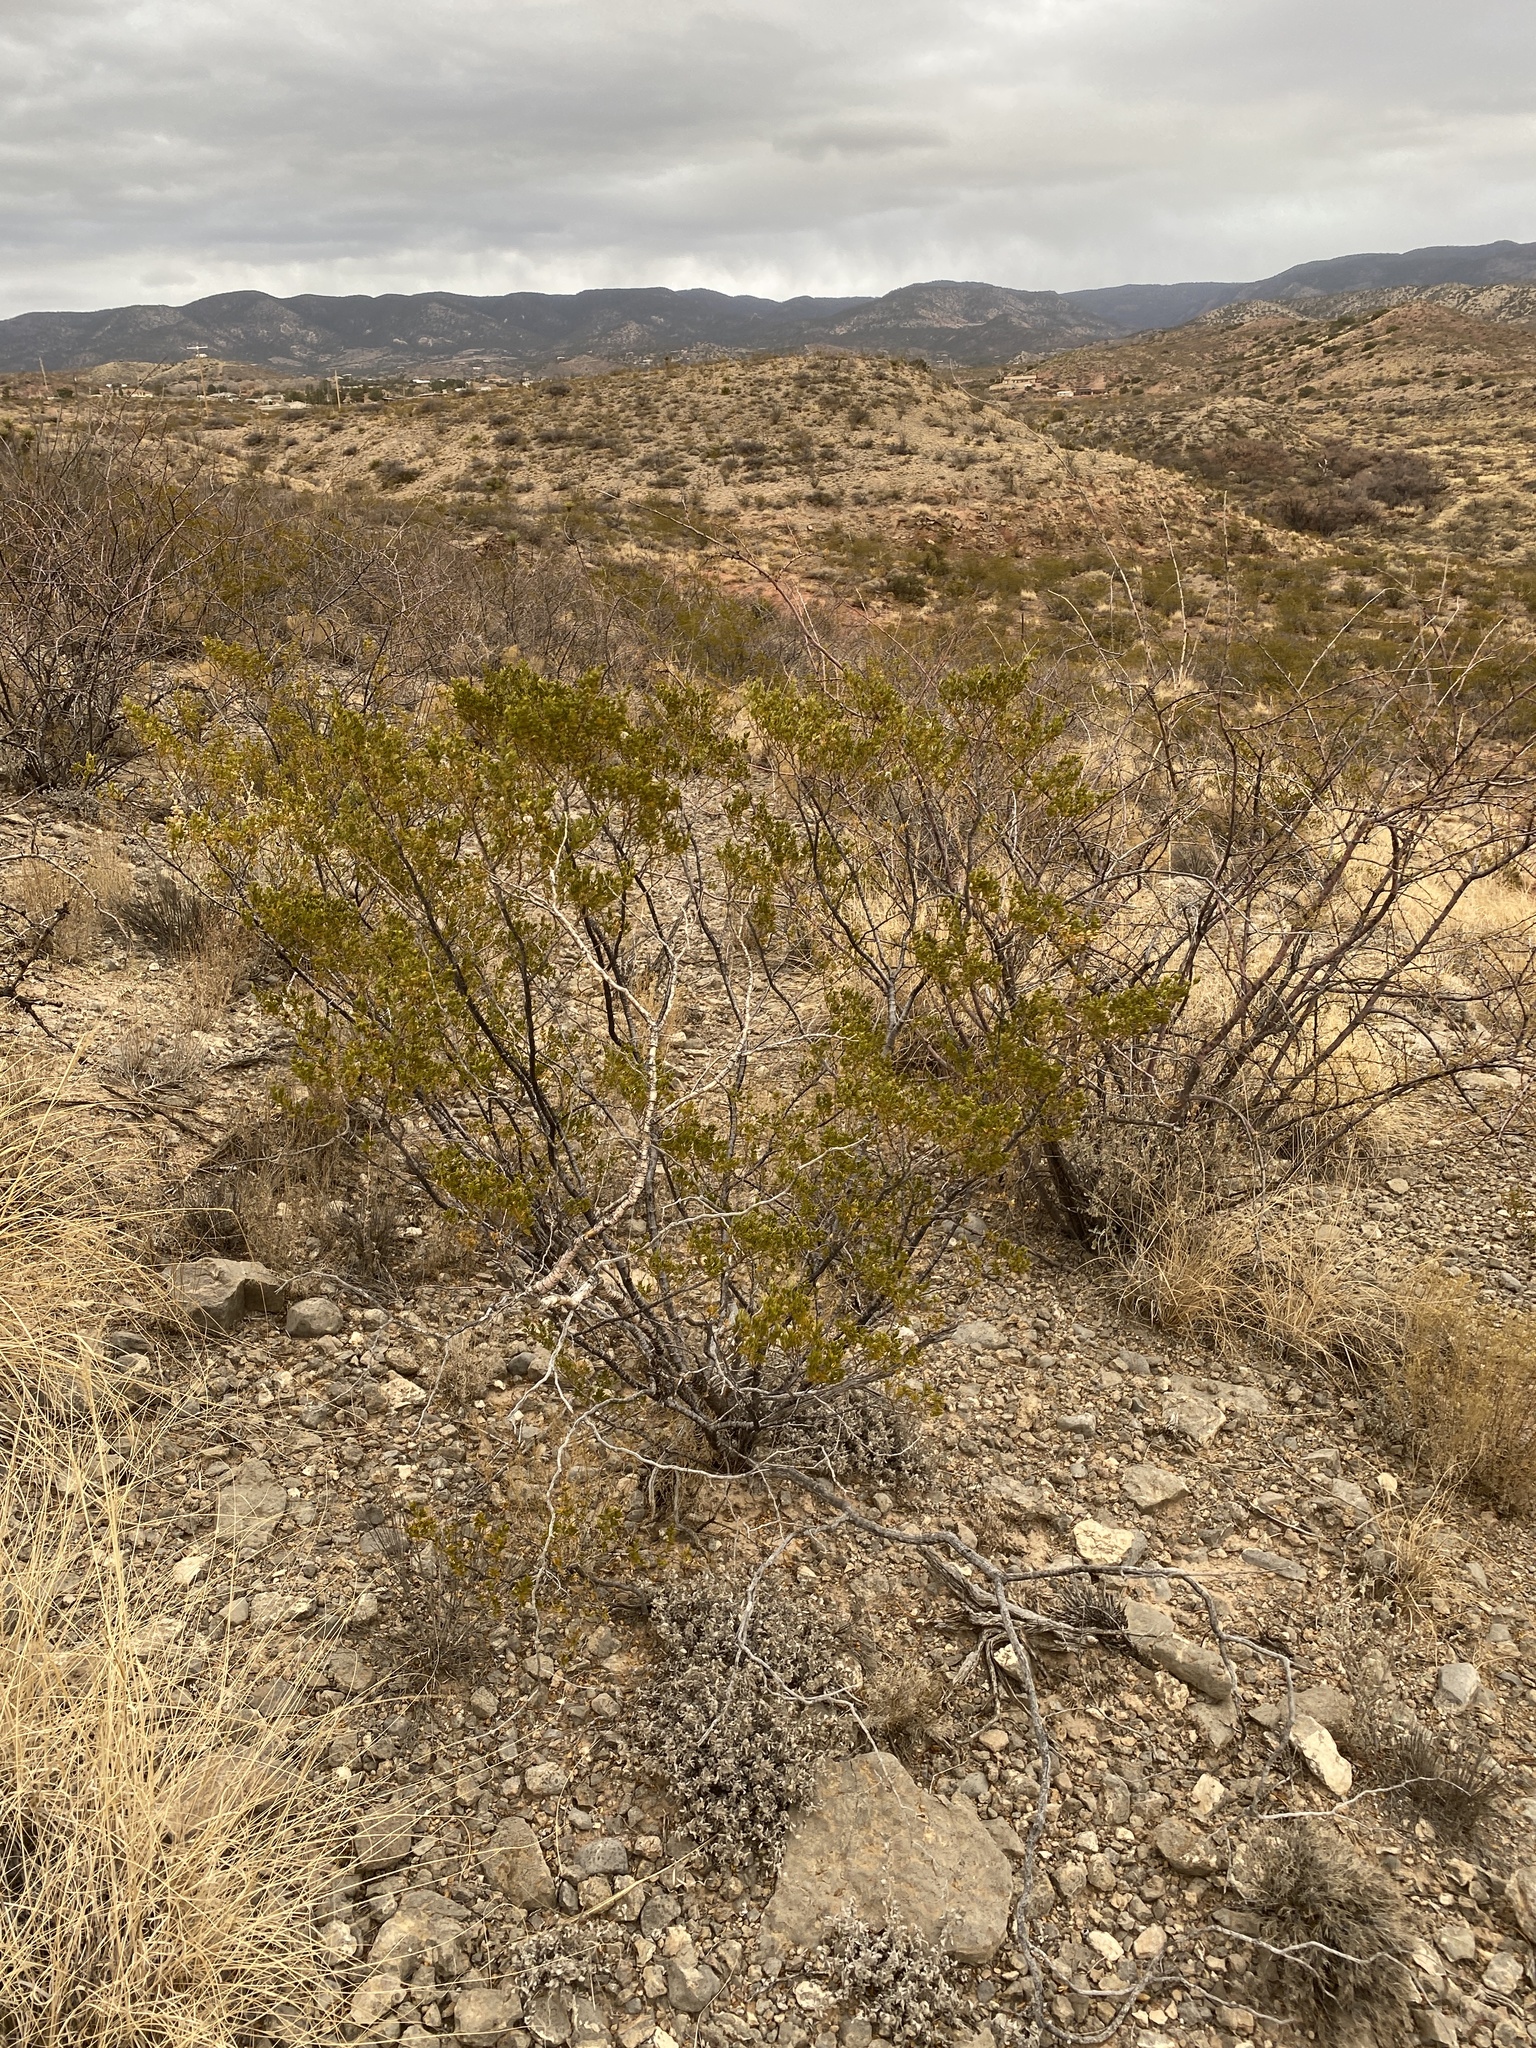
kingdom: Plantae
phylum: Tracheophyta
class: Magnoliopsida
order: Zygophyllales
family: Zygophyllaceae
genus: Larrea
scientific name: Larrea tridentata
